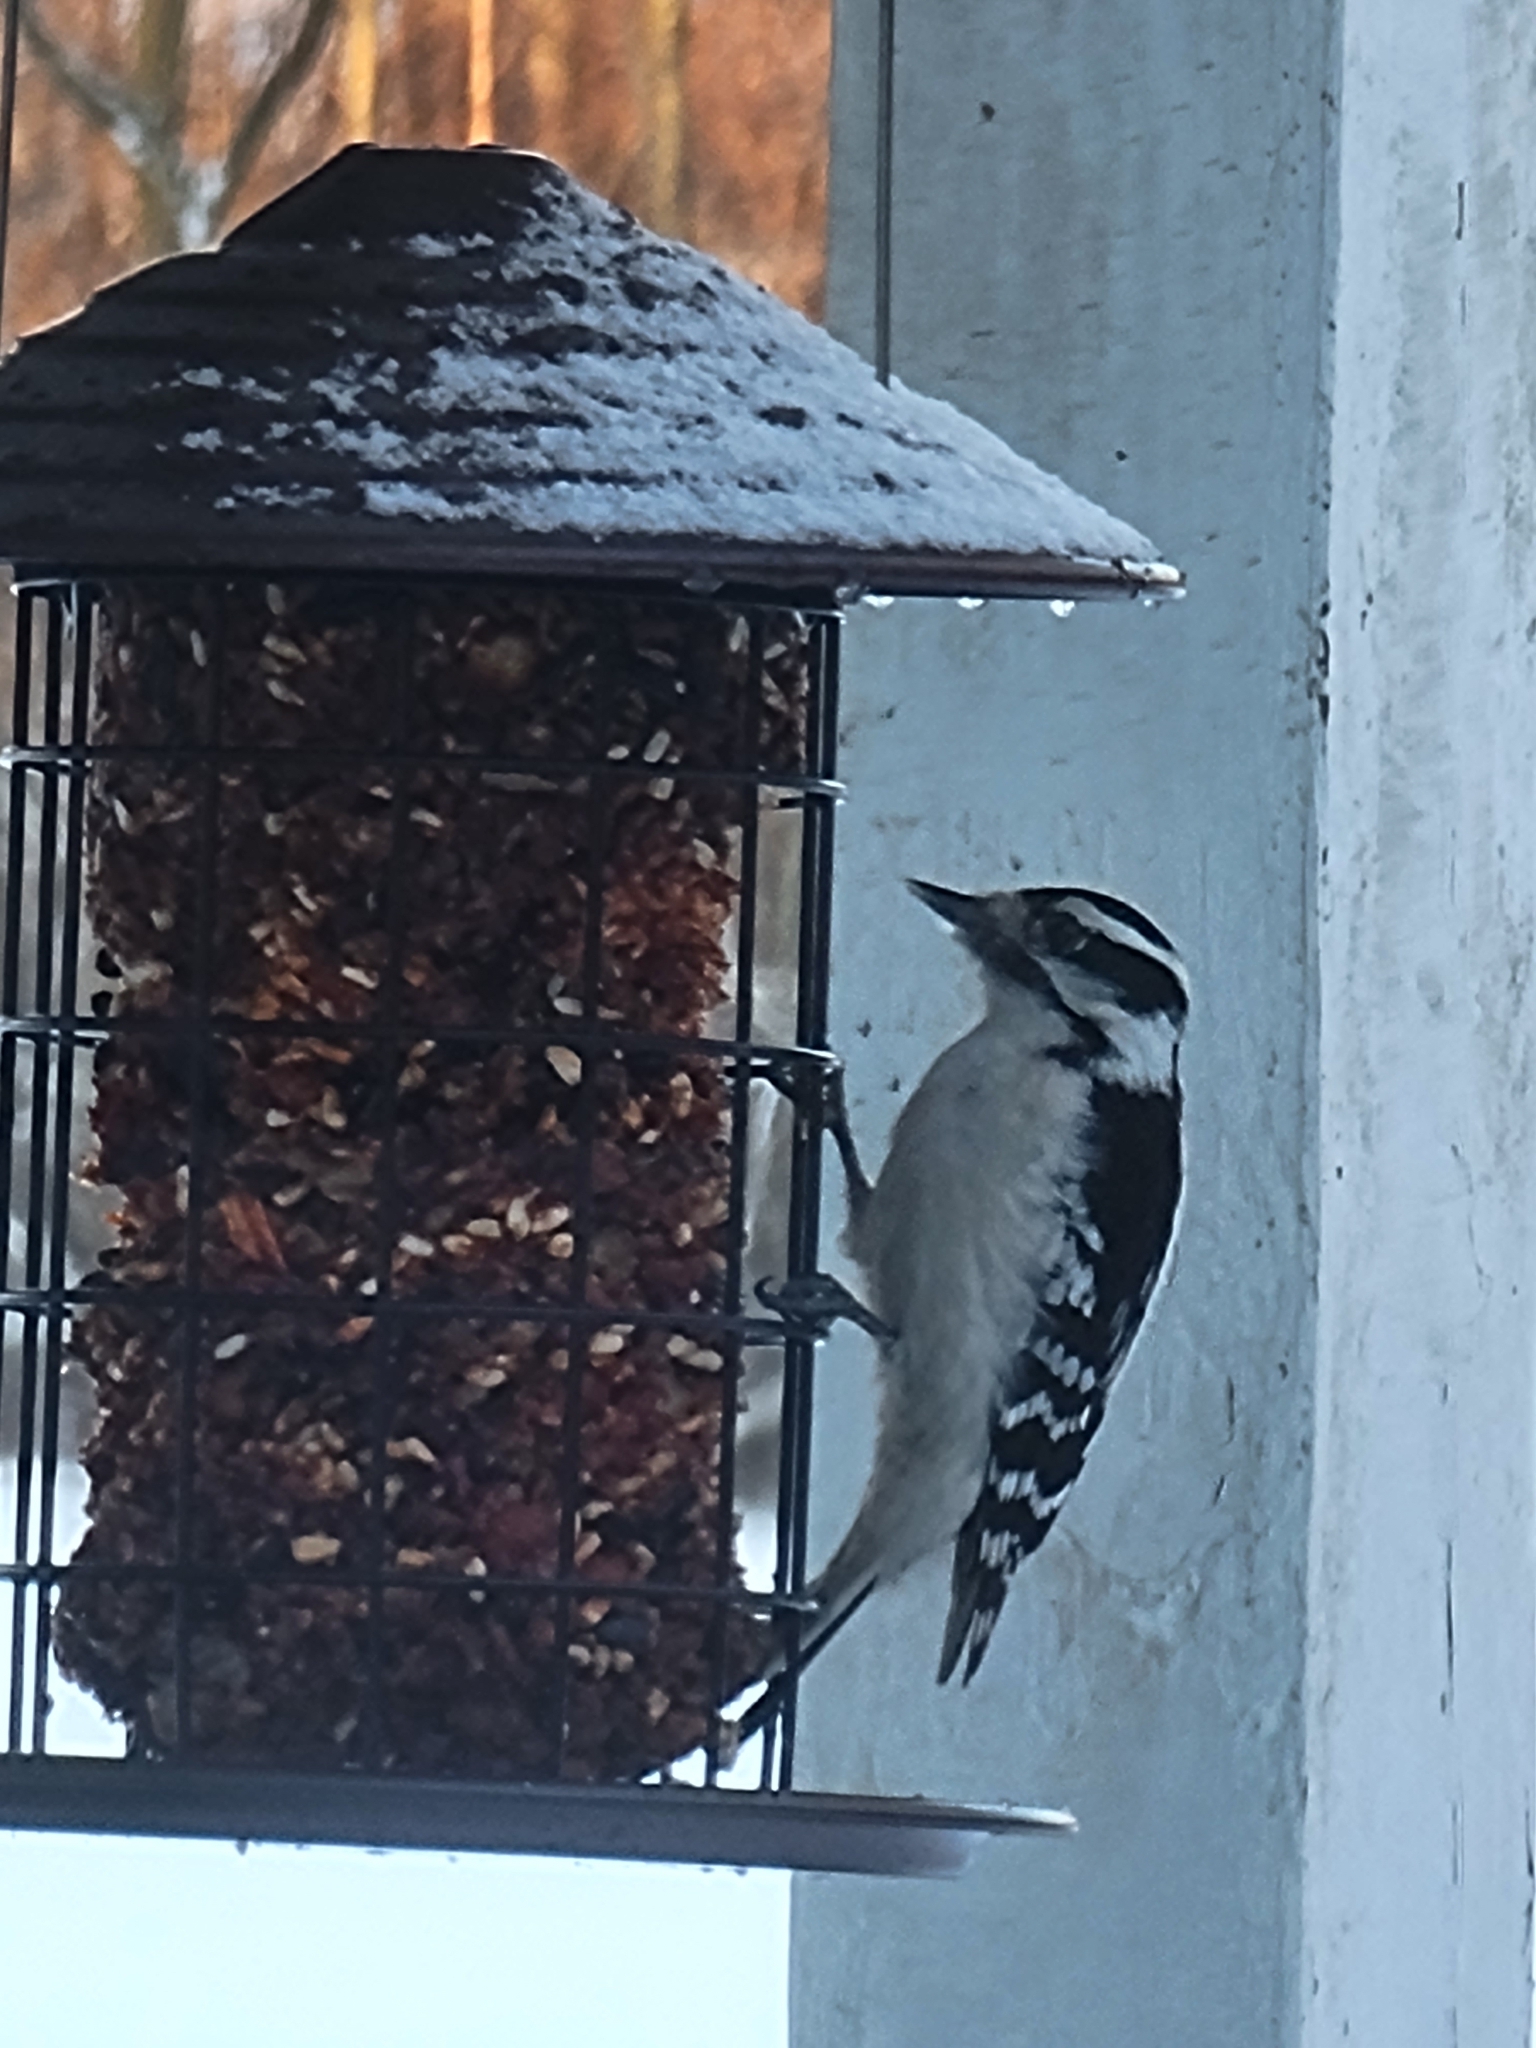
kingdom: Animalia
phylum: Chordata
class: Aves
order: Piciformes
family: Picidae
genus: Dryobates
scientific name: Dryobates pubescens
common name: Downy woodpecker
